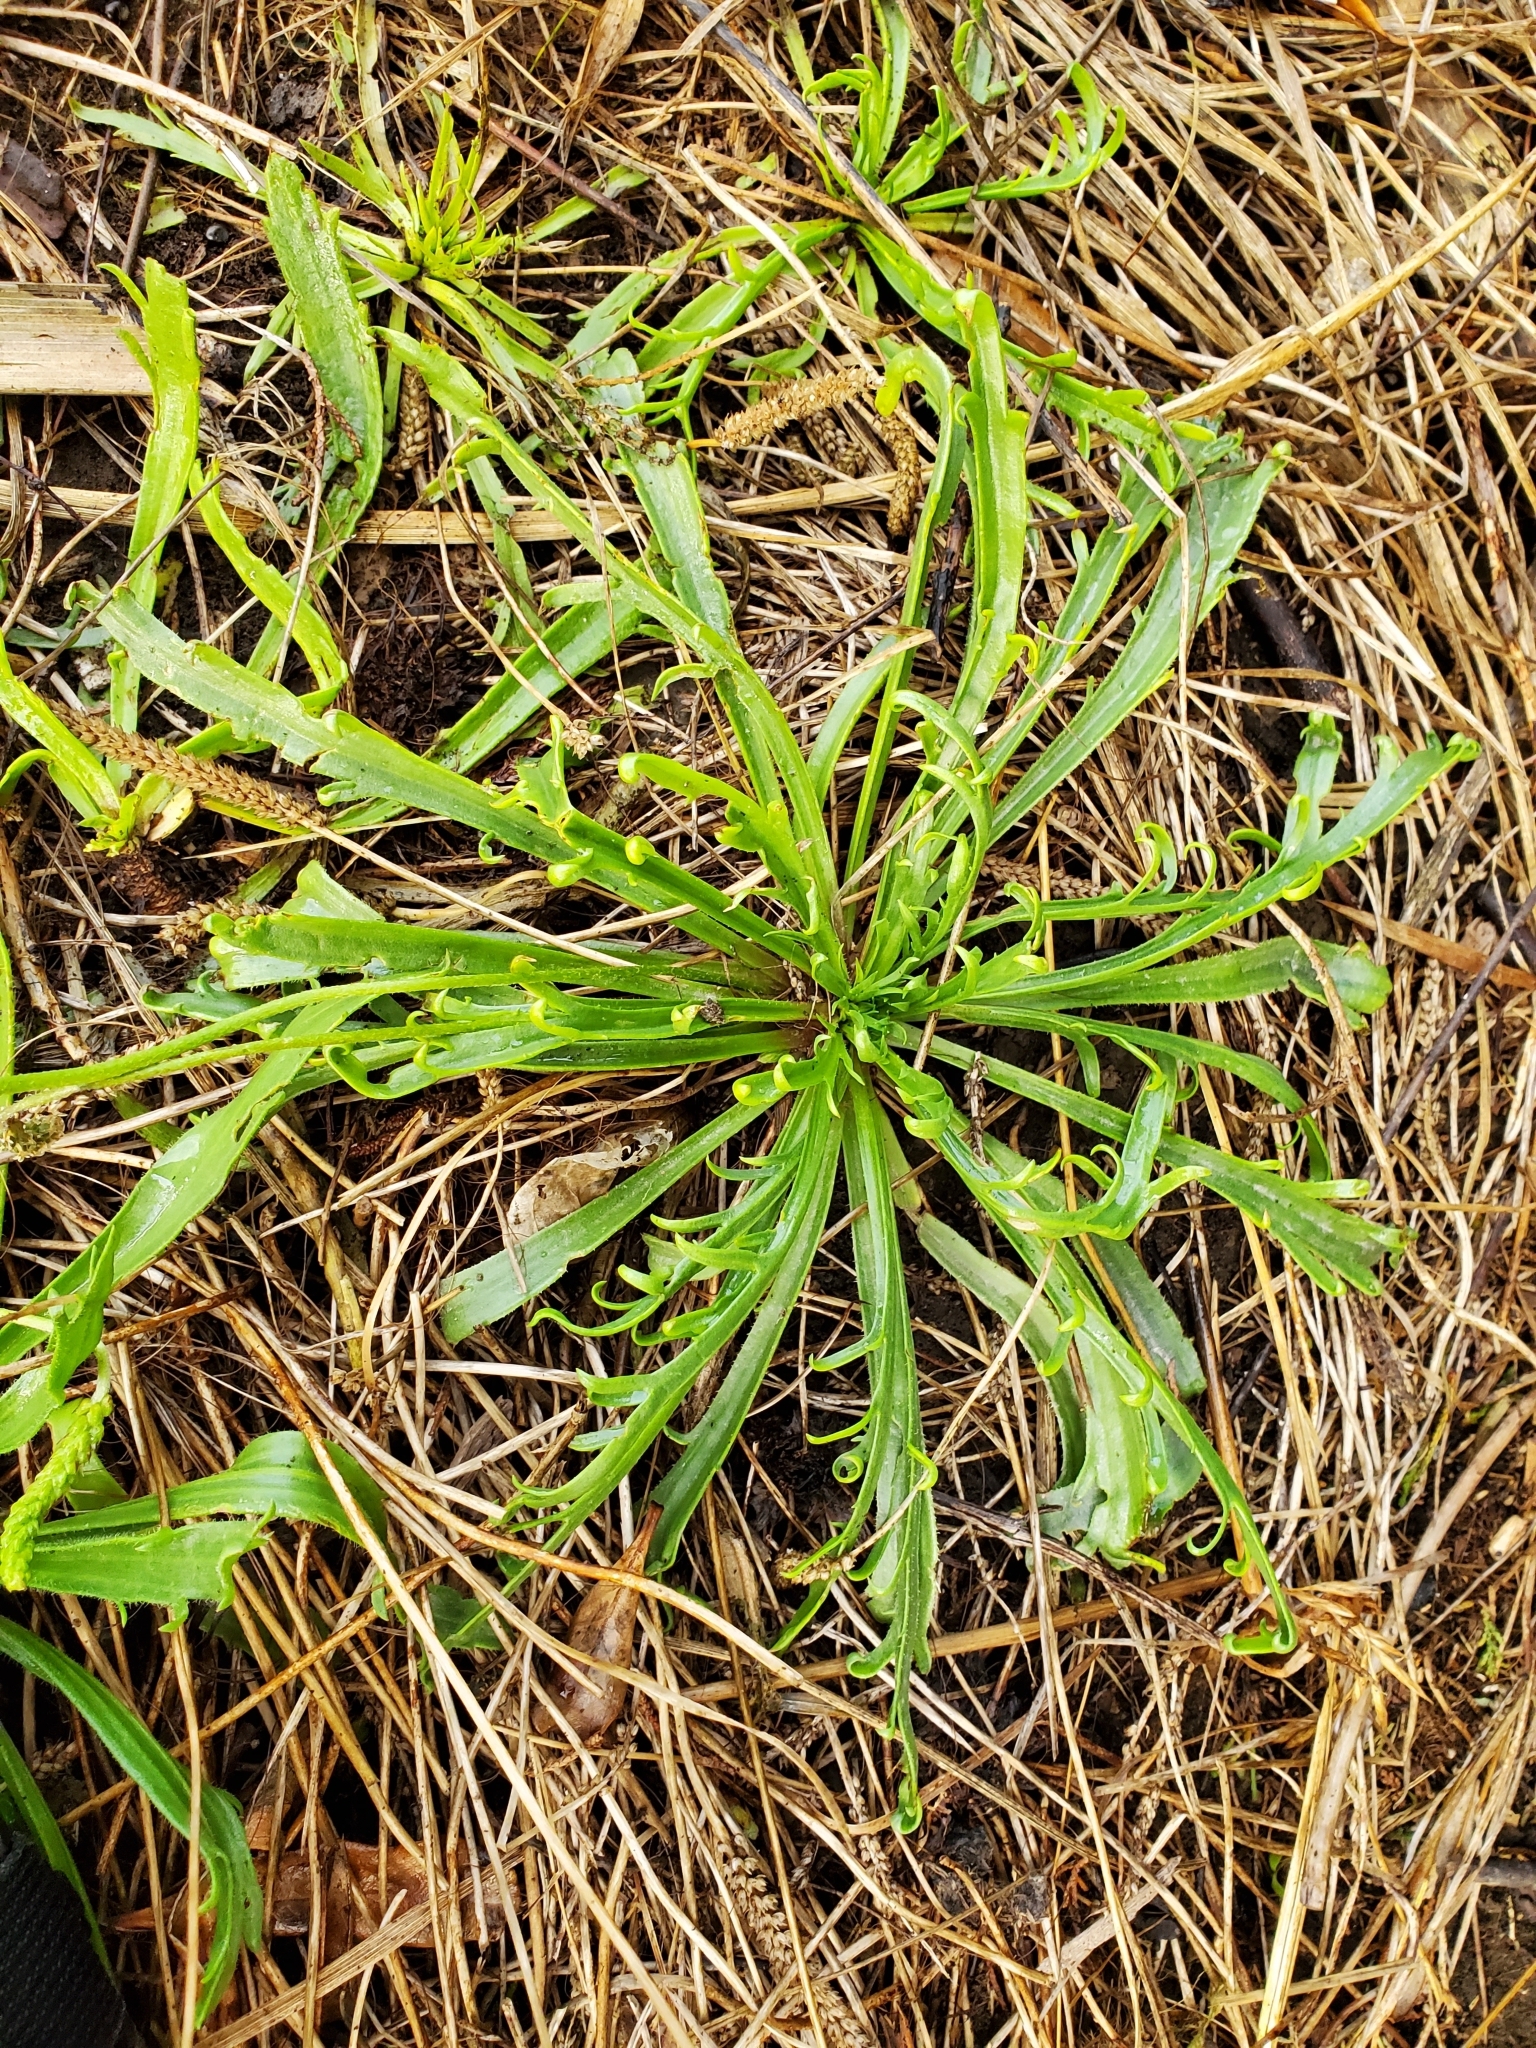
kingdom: Plantae
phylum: Tracheophyta
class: Magnoliopsida
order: Lamiales
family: Plantaginaceae
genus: Plantago
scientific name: Plantago coronopus
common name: Buck's-horn plantain
